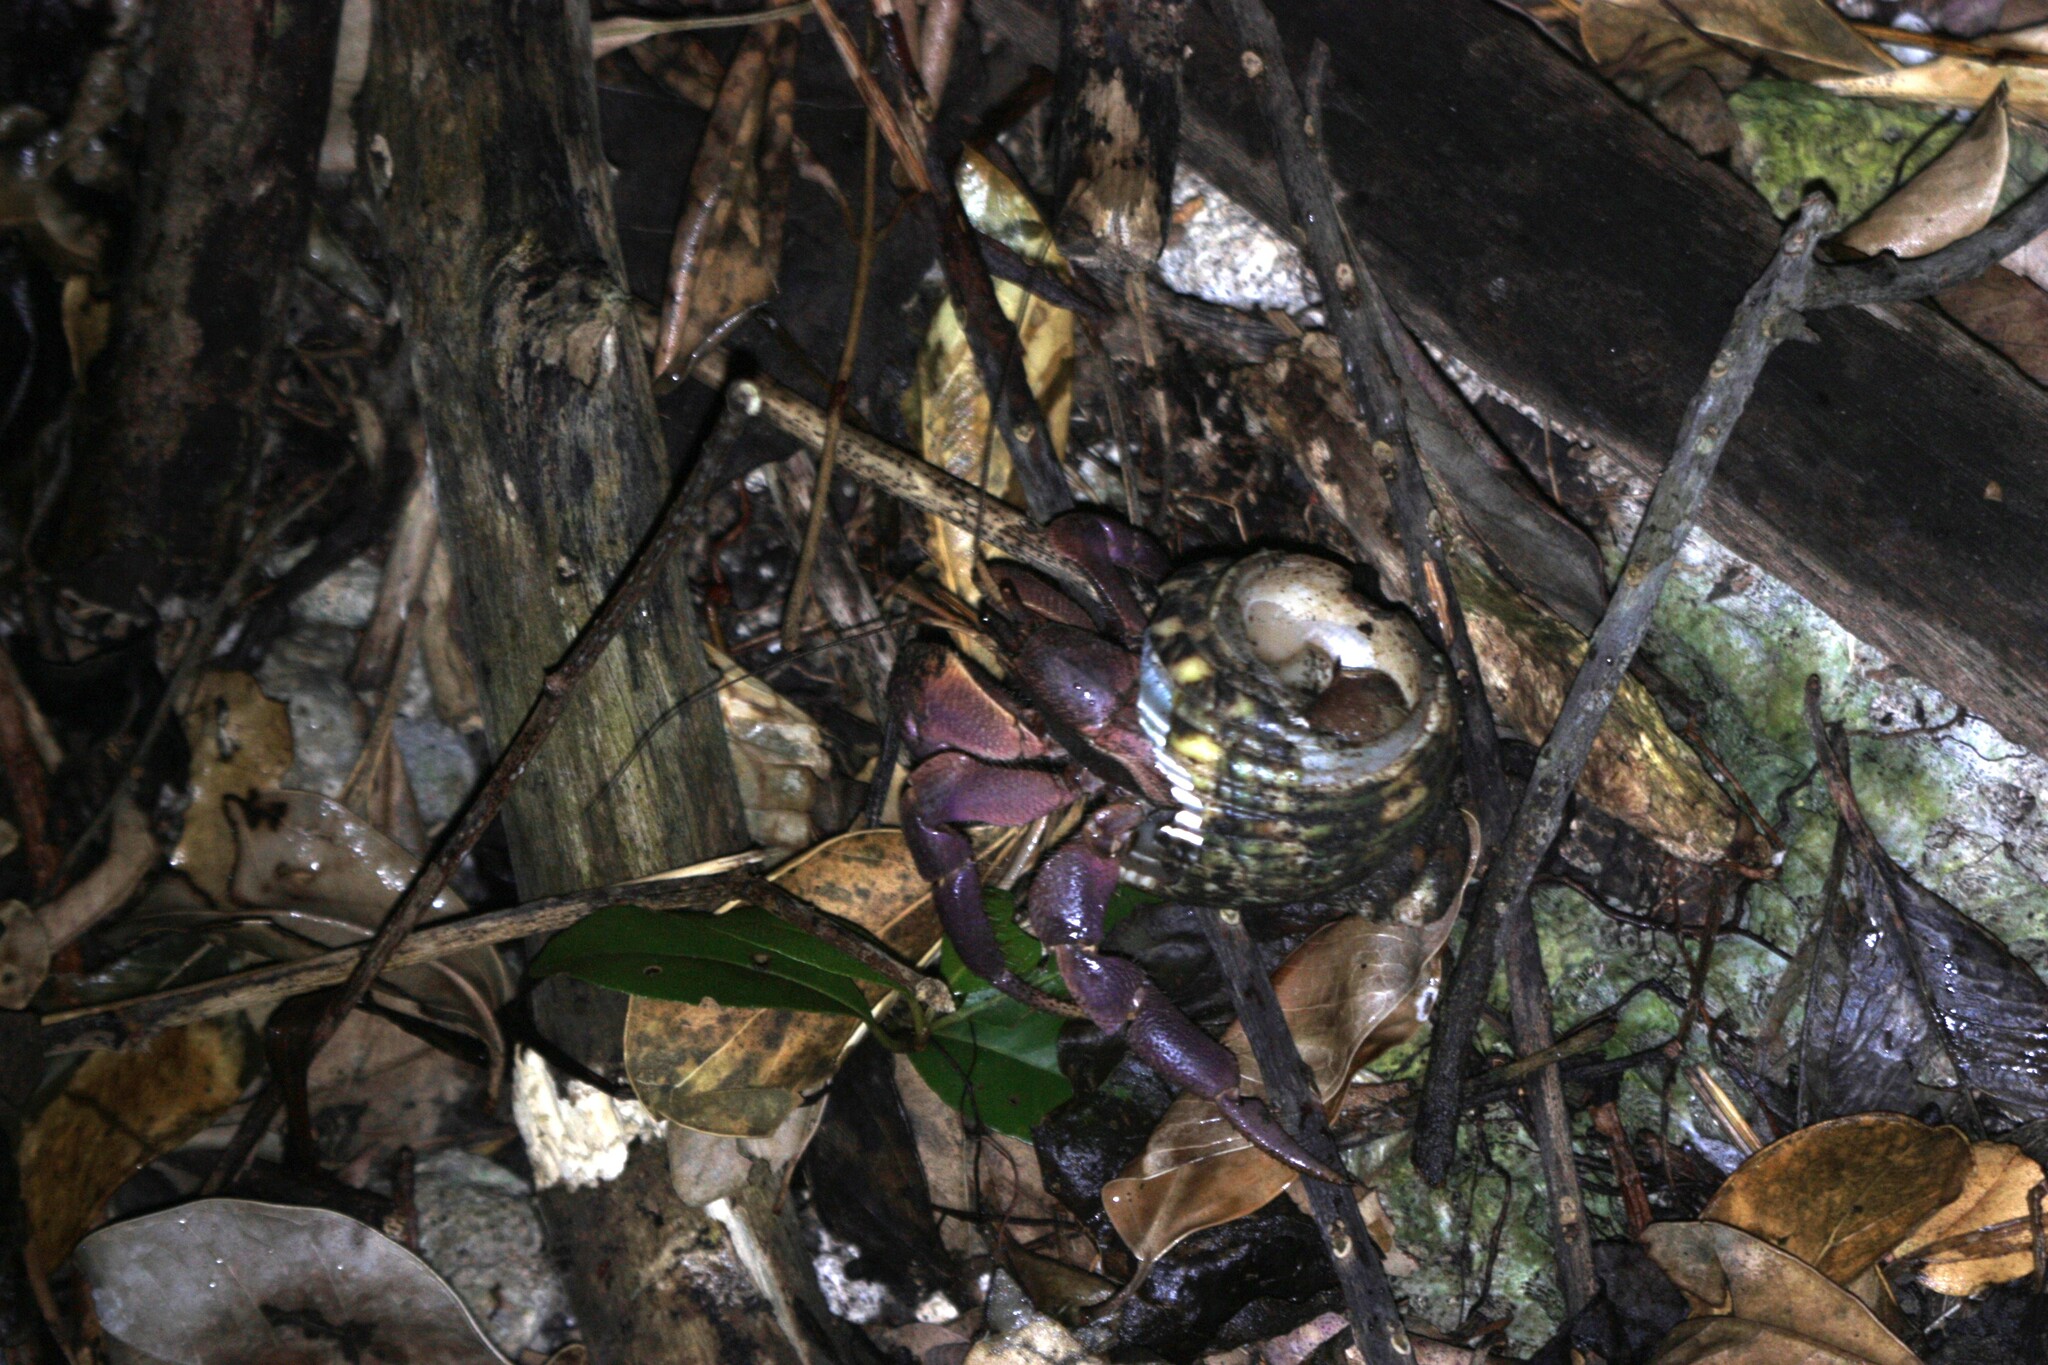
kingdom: Animalia
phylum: Arthropoda
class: Malacostraca
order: Decapoda
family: Coenobitidae
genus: Coenobita
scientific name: Coenobita brevimanus
